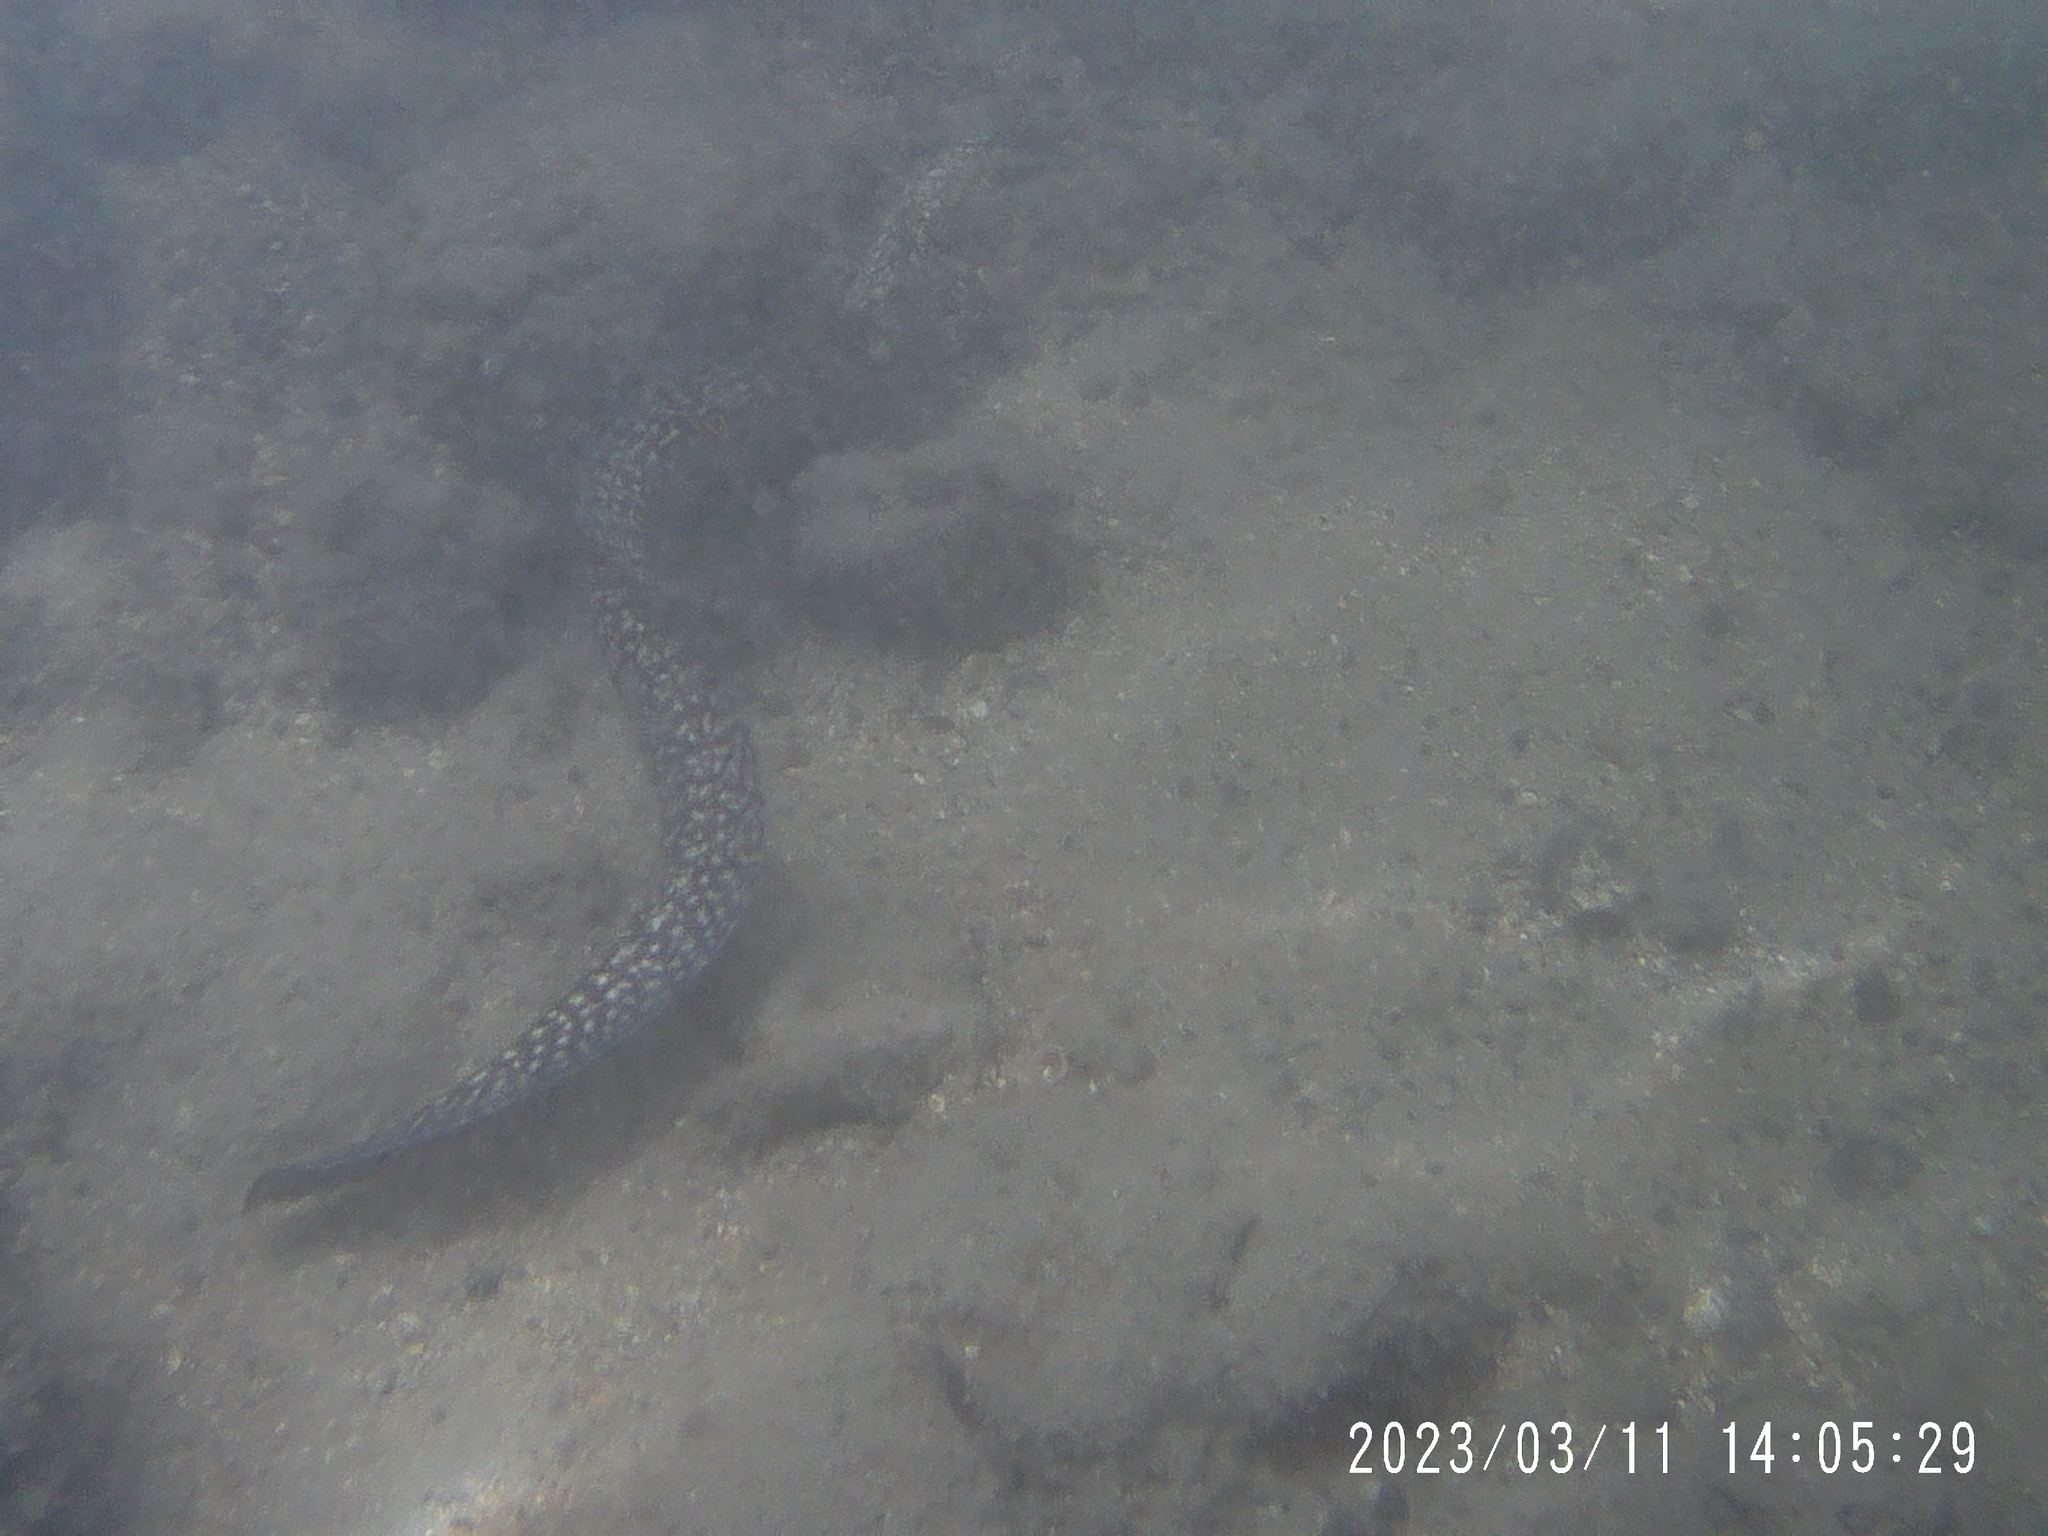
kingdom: Animalia
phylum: Chordata
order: Anguilliformes
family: Muraenidae
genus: Gymnothorax
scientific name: Gymnothorax eurostus
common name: Stout moray
